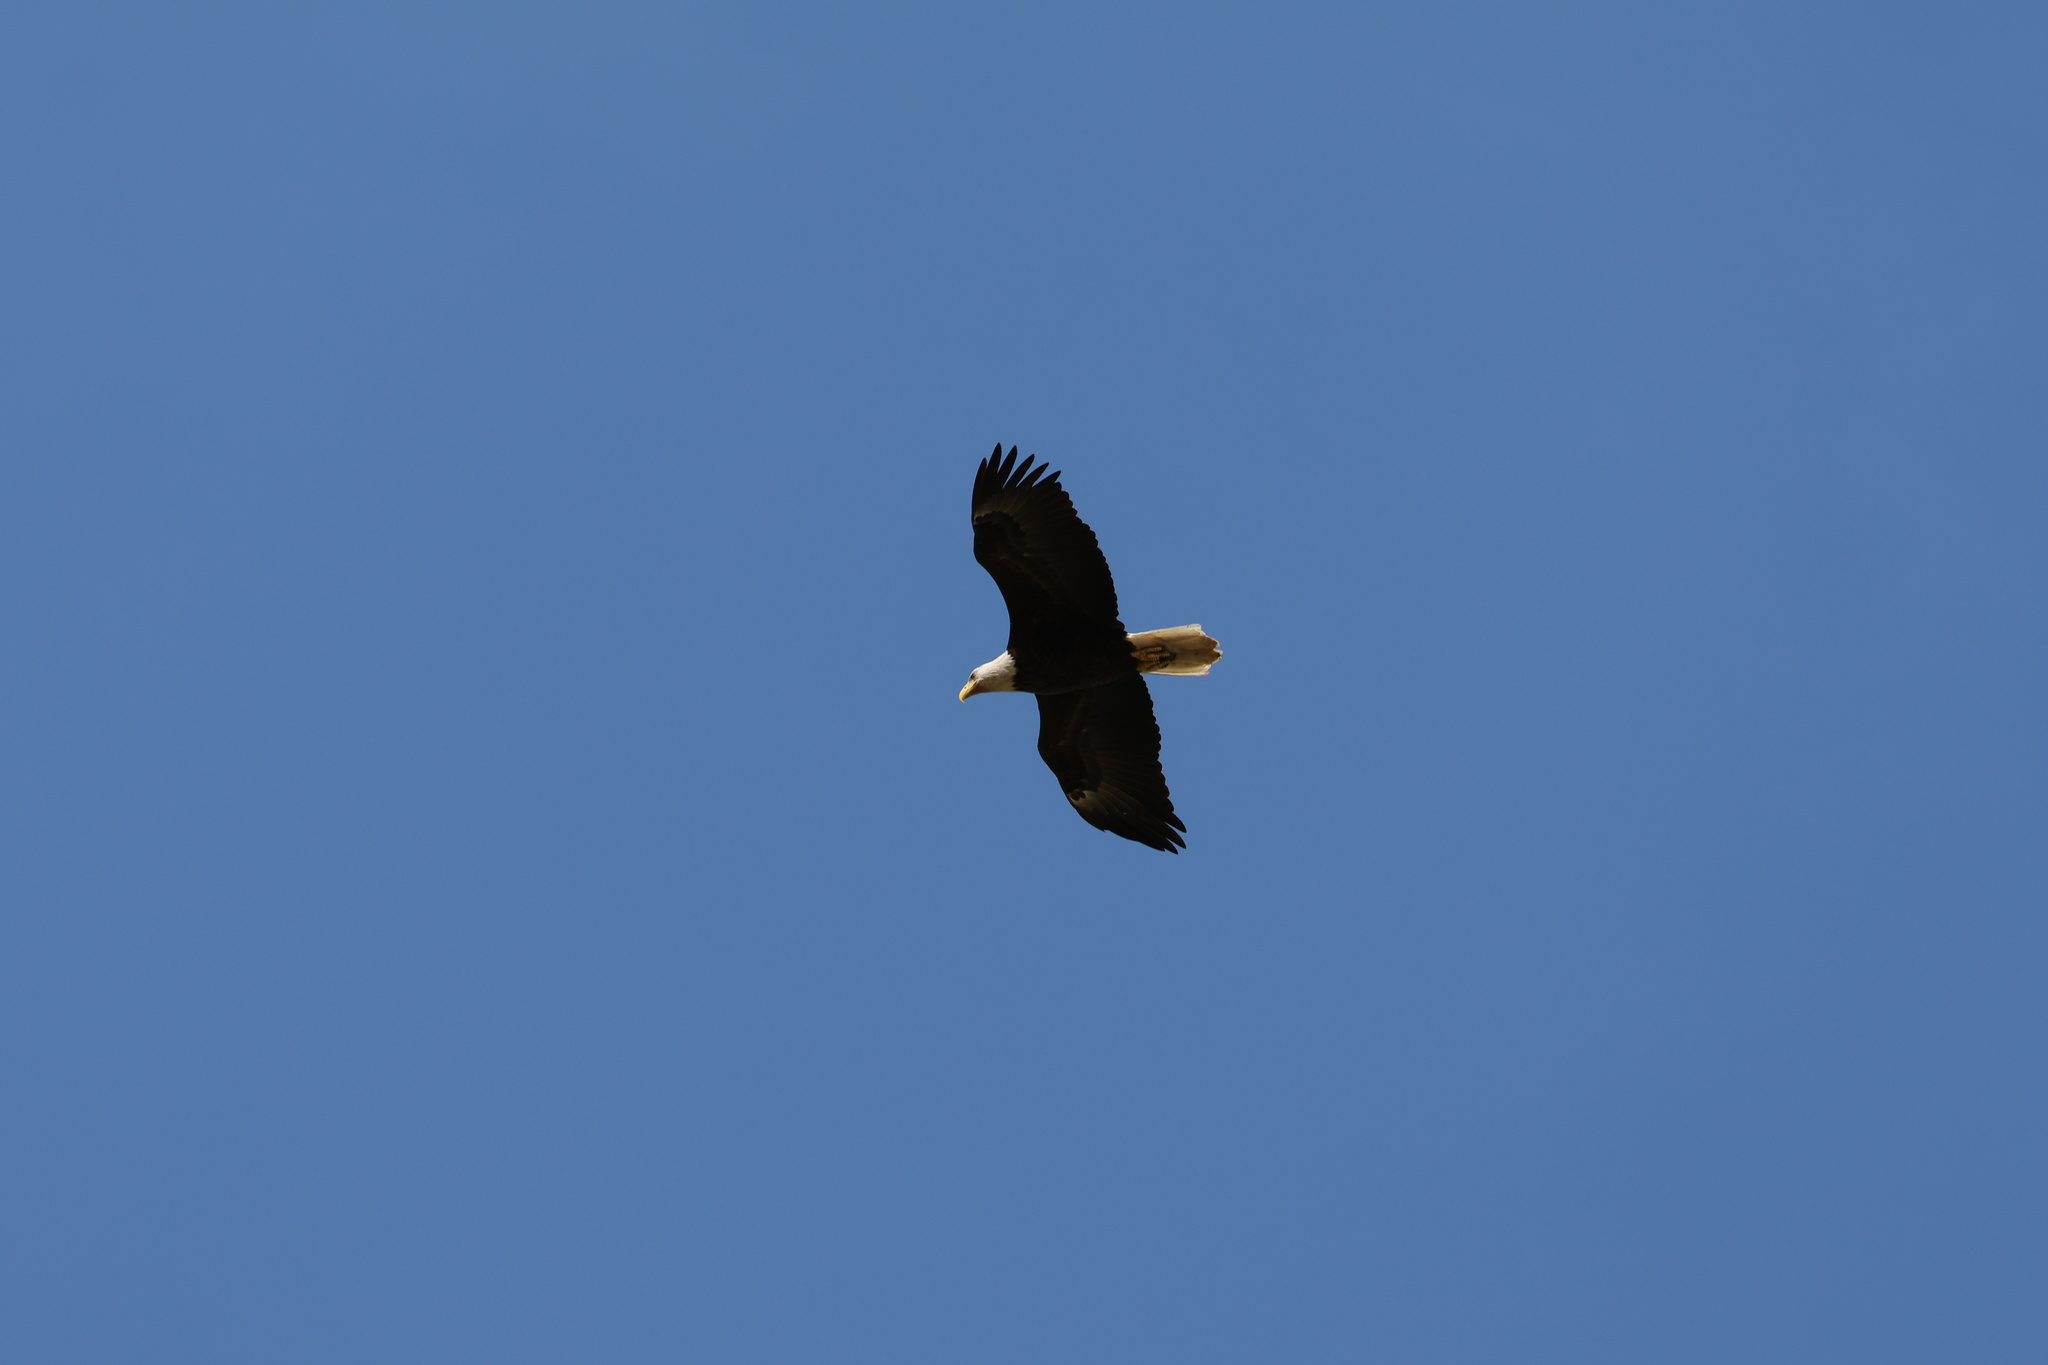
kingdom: Animalia
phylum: Chordata
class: Aves
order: Accipitriformes
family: Accipitridae
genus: Haliaeetus
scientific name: Haliaeetus leucocephalus
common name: Bald eagle
